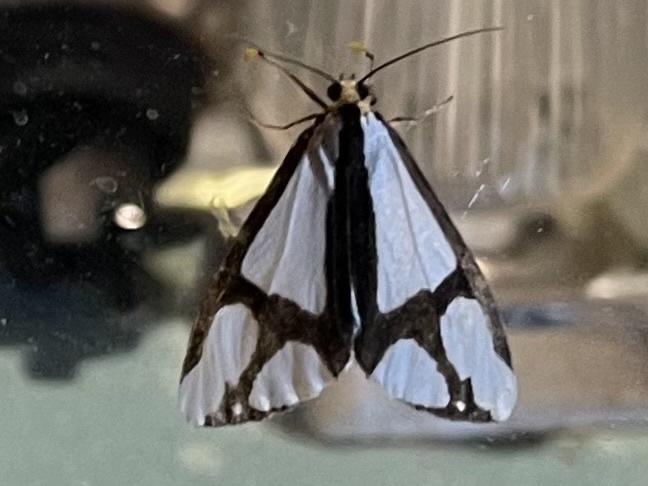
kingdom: Animalia
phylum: Arthropoda
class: Insecta
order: Lepidoptera
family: Erebidae
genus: Haploa
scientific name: Haploa contigua
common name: Neighbor moth
